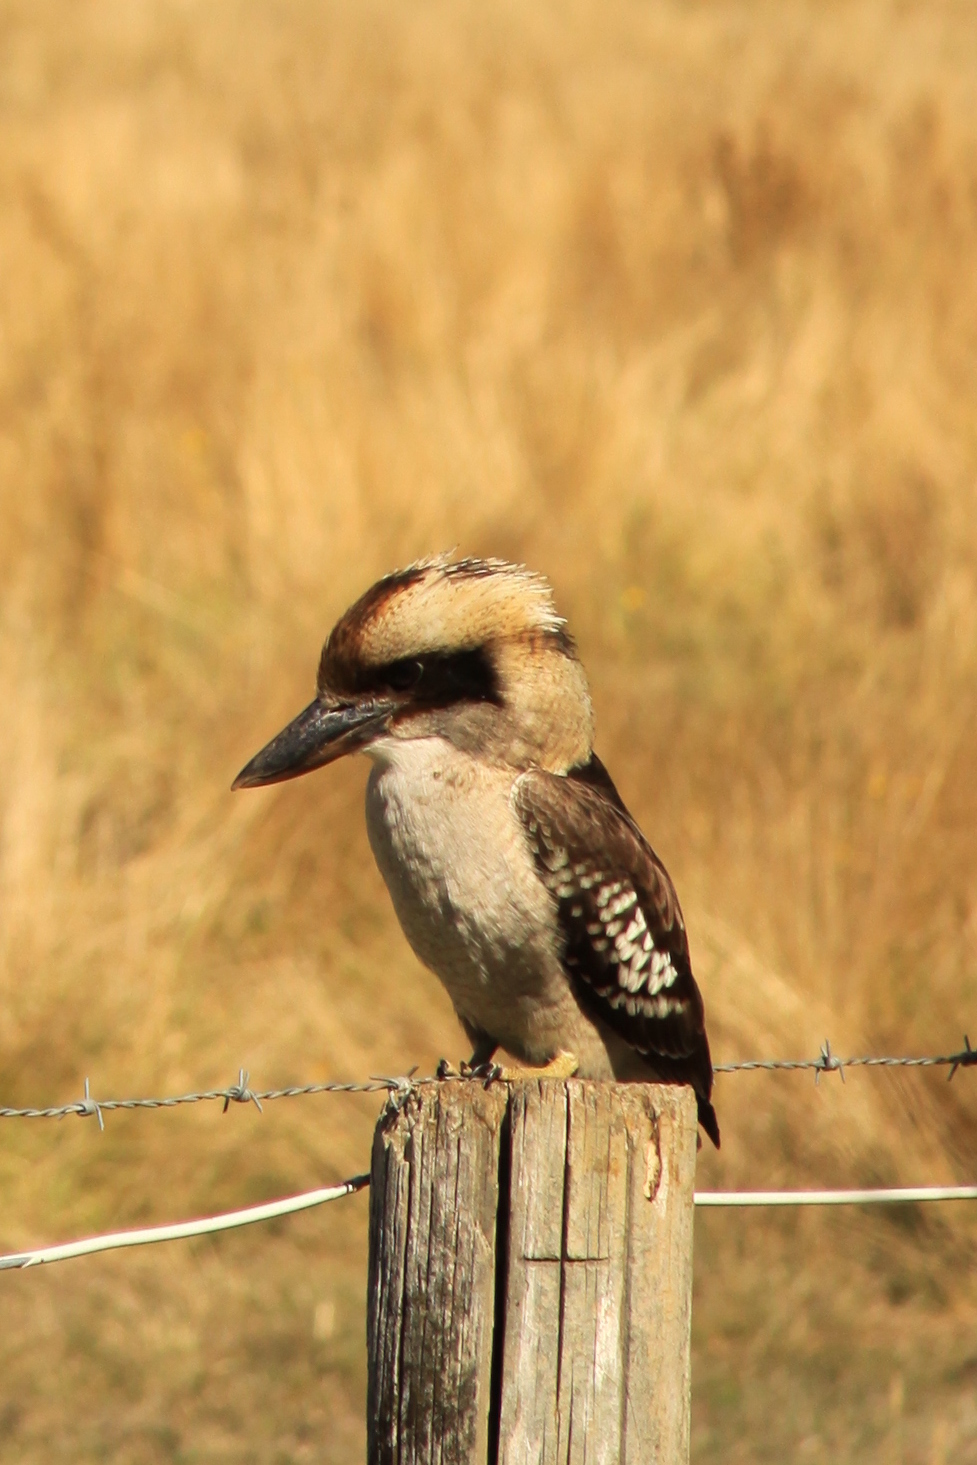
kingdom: Animalia
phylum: Chordata
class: Aves
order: Coraciiformes
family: Alcedinidae
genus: Dacelo
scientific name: Dacelo novaeguineae
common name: Laughing kookaburra
